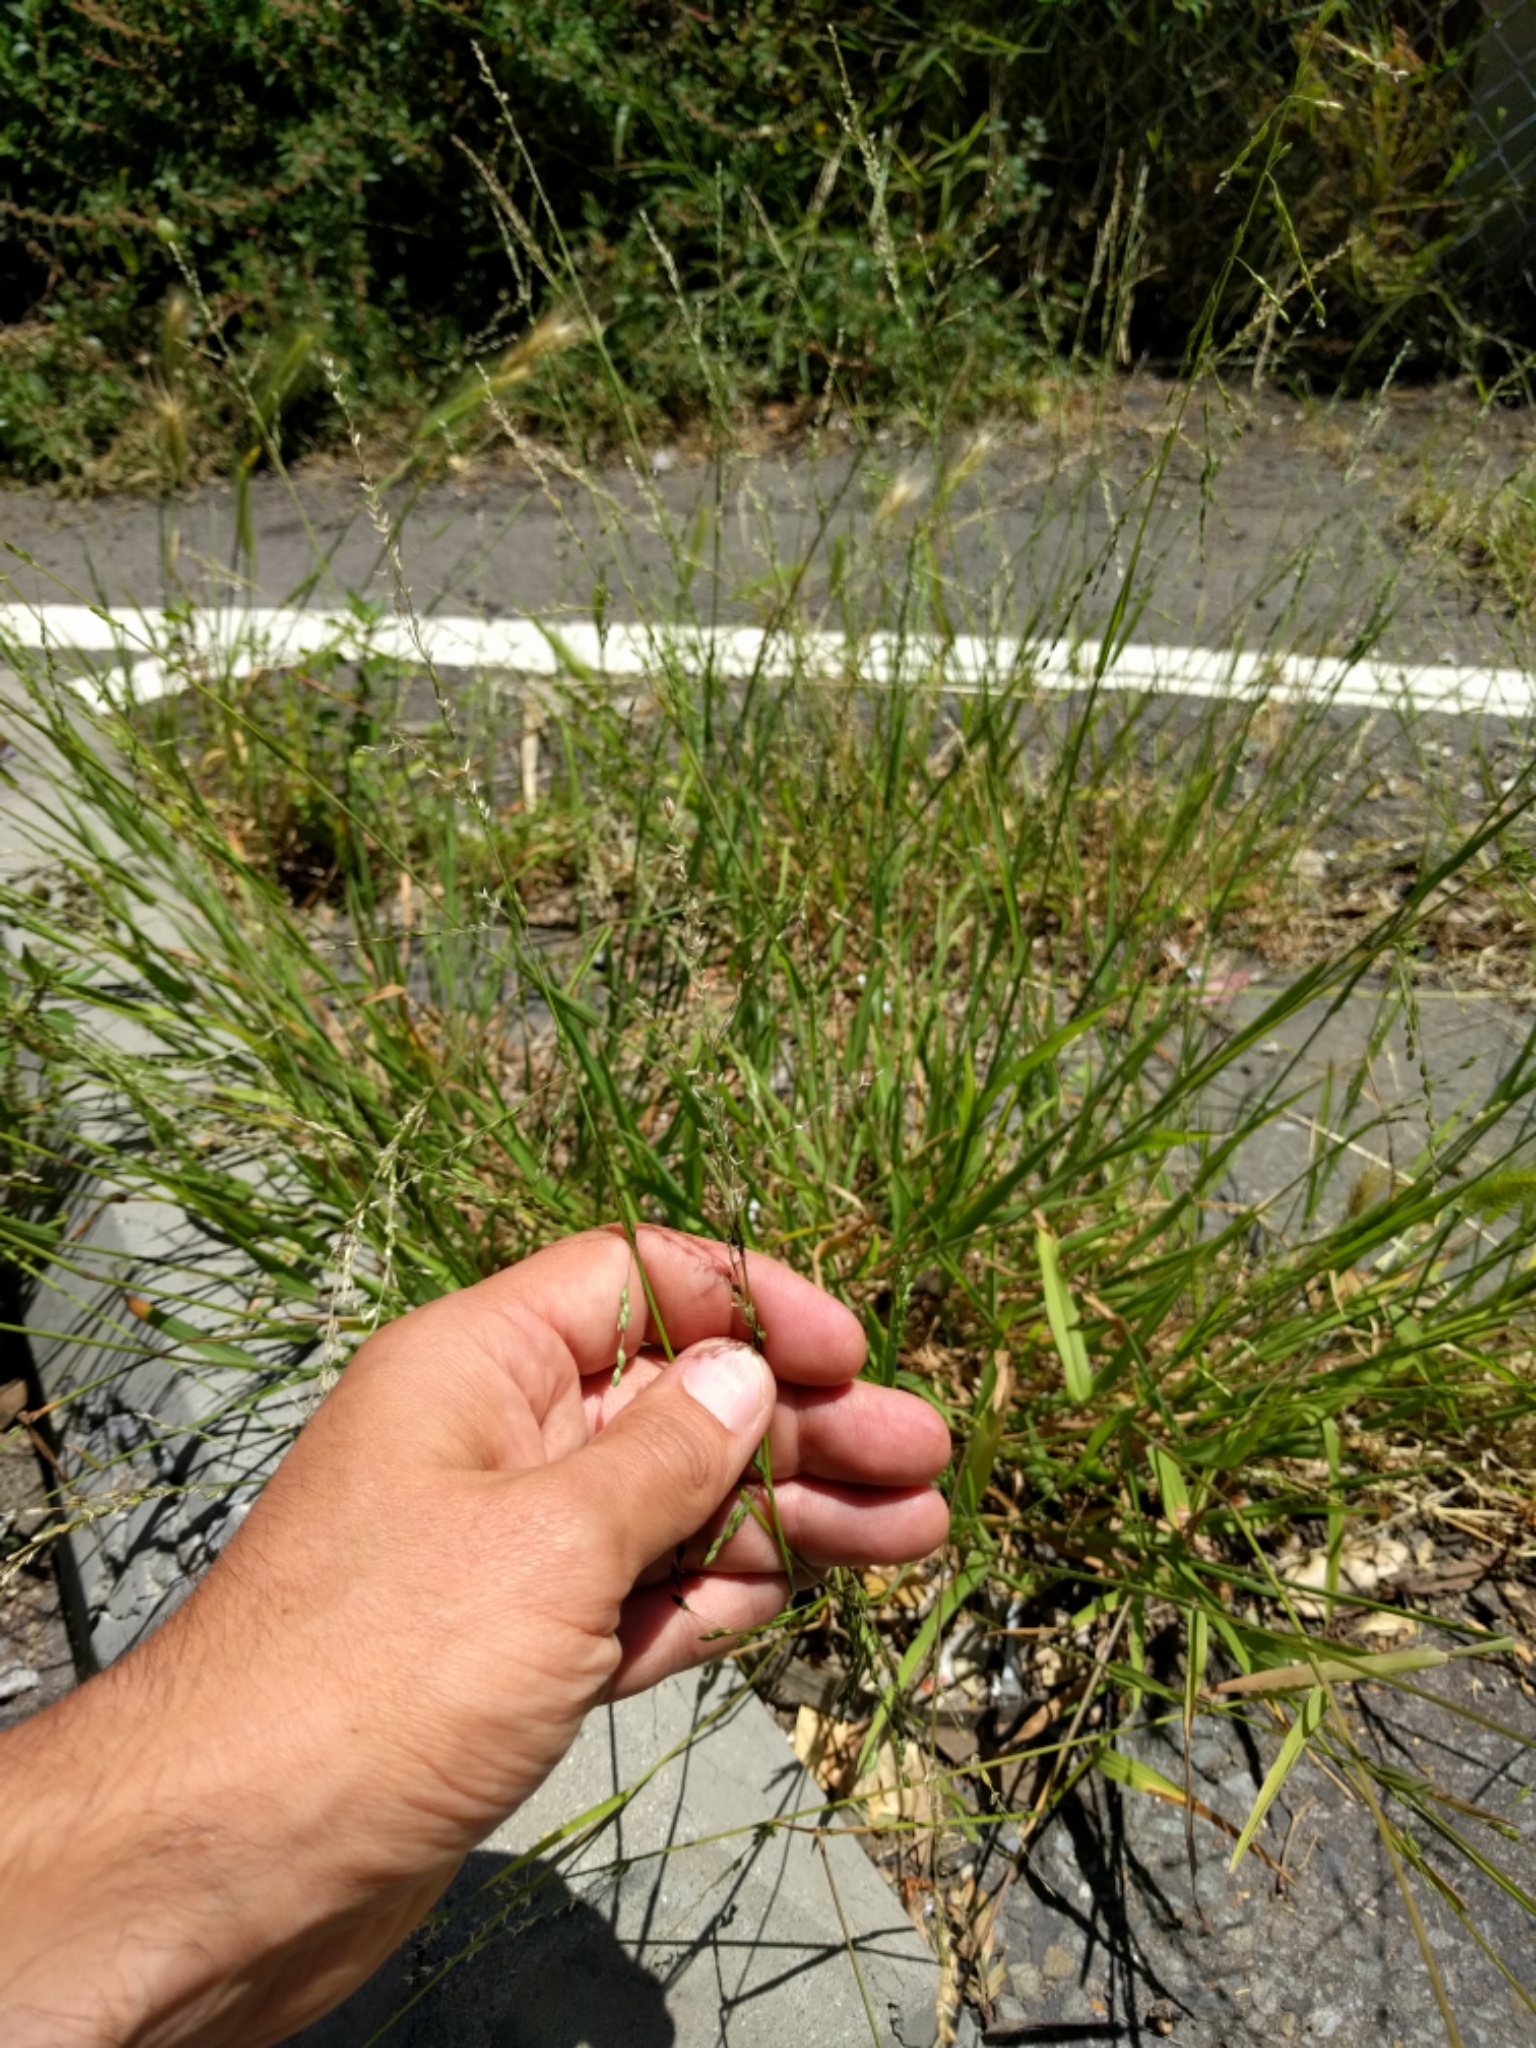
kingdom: Plantae
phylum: Tracheophyta
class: Liliopsida
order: Poales
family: Poaceae
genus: Ehrharta
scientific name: Ehrharta erecta
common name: Panic veldtgrass
